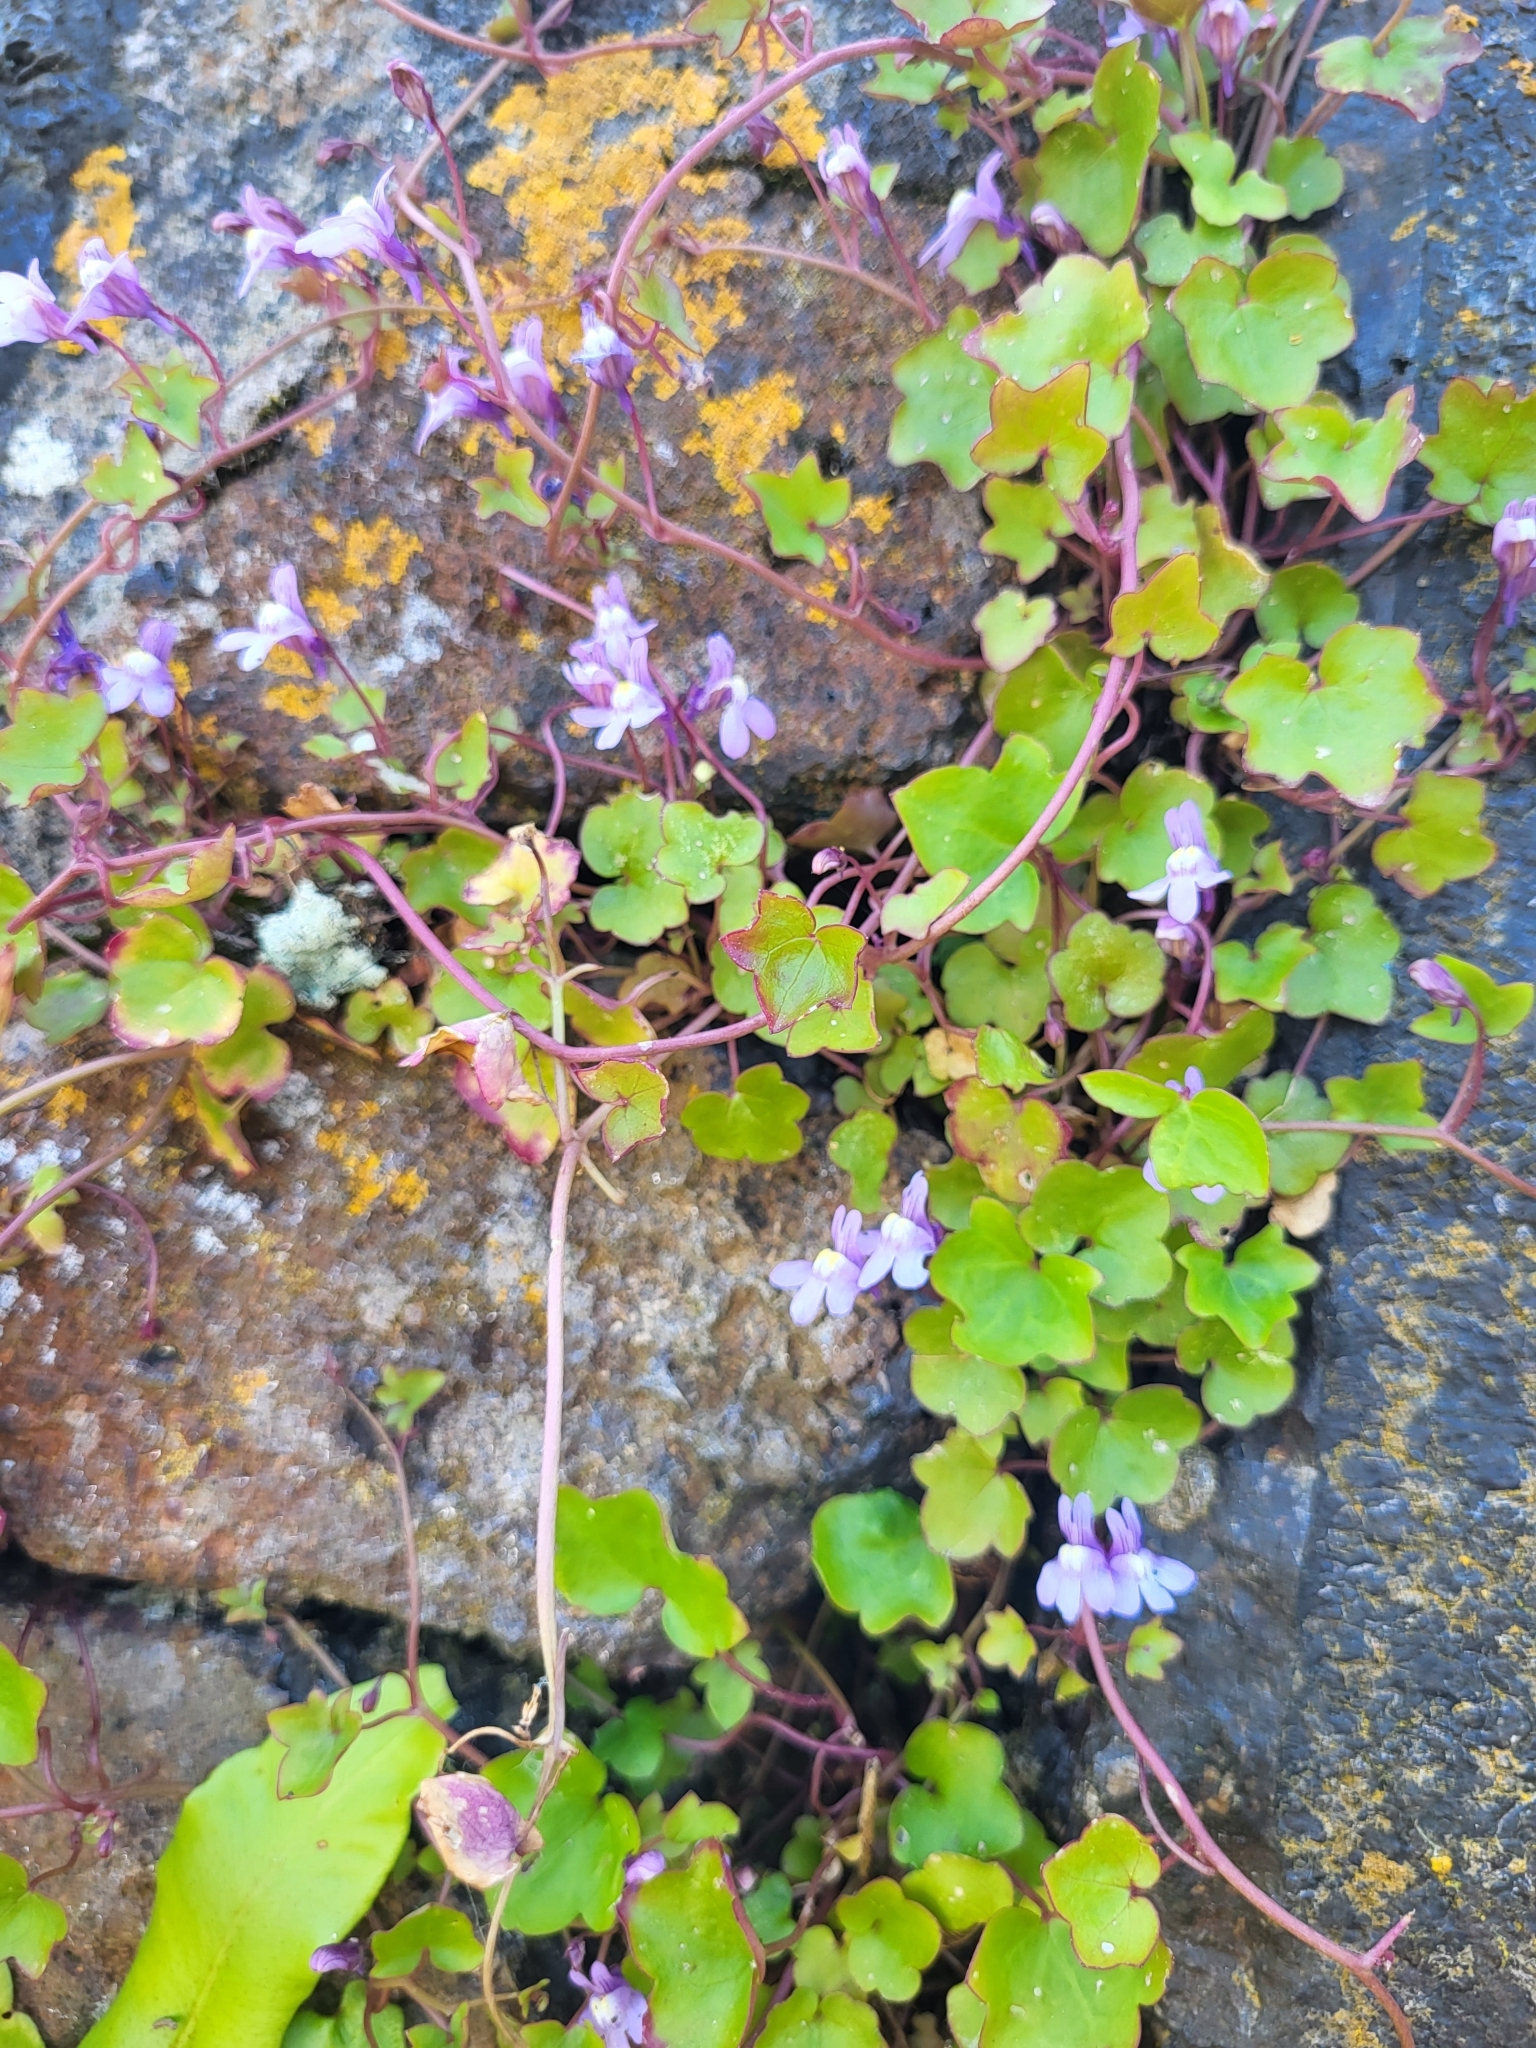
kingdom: Plantae
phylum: Tracheophyta
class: Magnoliopsida
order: Lamiales
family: Plantaginaceae
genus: Cymbalaria
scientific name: Cymbalaria muralis
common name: Ivy-leaved toadflax
